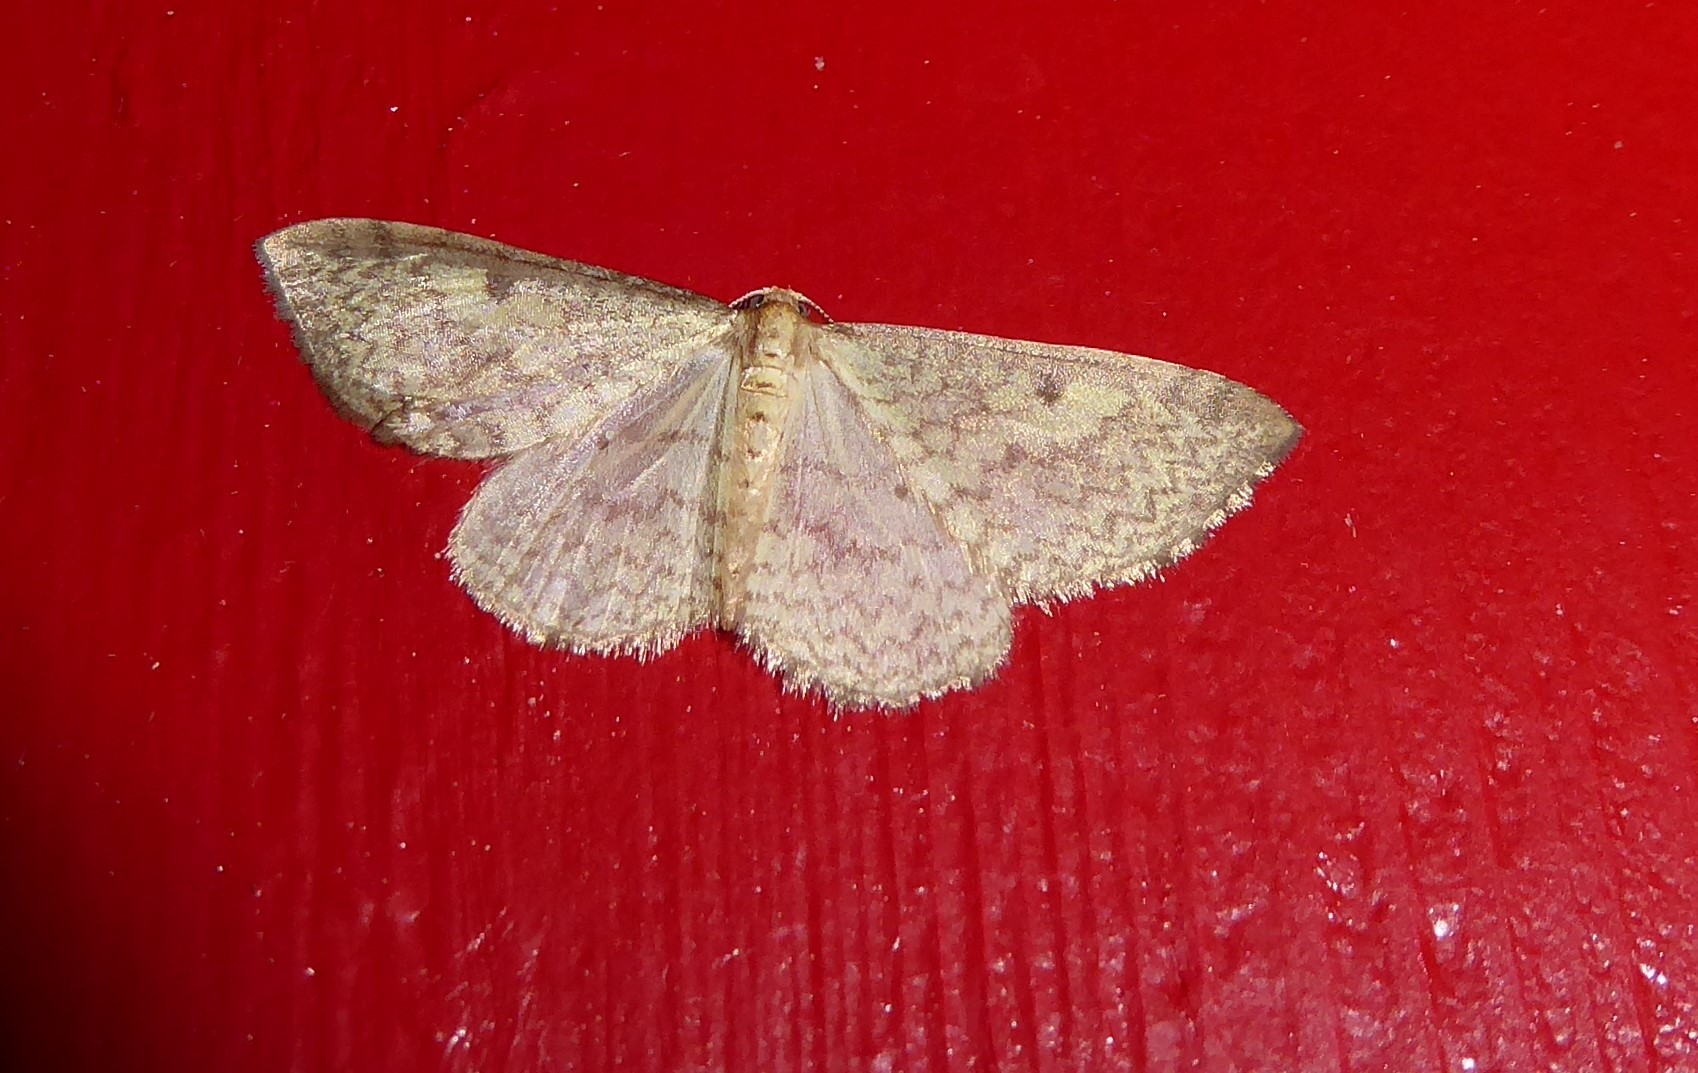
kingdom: Animalia
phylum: Arthropoda
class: Insecta
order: Lepidoptera
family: Geometridae
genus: Epiphryne
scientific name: Epiphryne undosata
